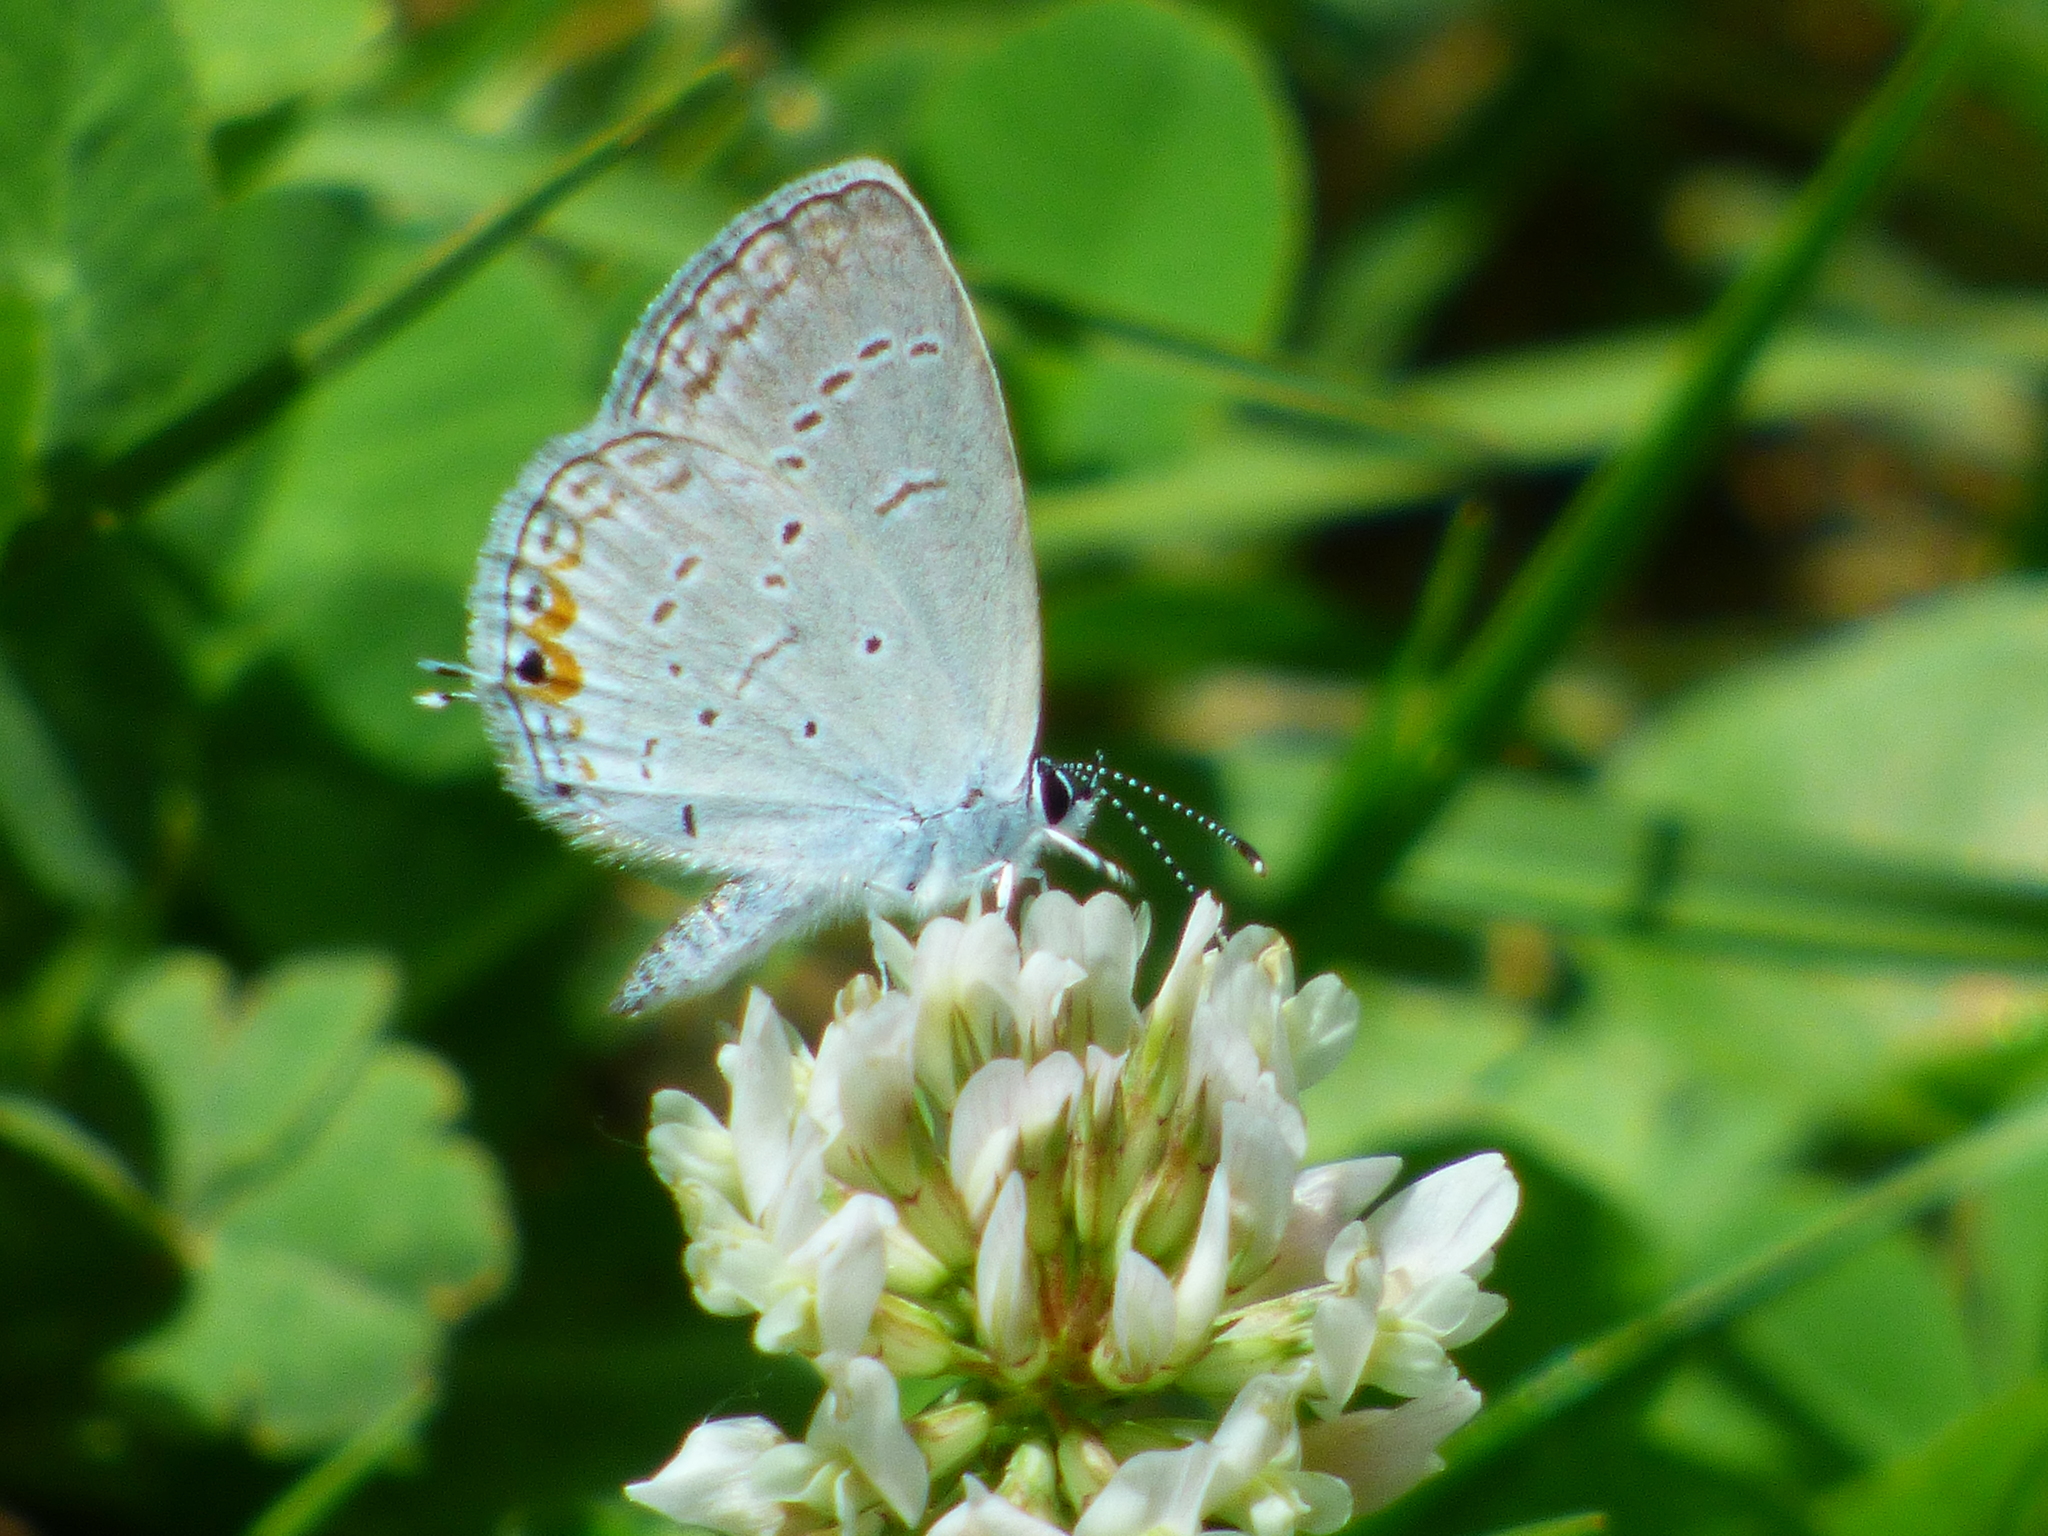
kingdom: Animalia
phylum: Arthropoda
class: Insecta
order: Lepidoptera
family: Lycaenidae
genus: Elkalyce
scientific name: Elkalyce comyntas
